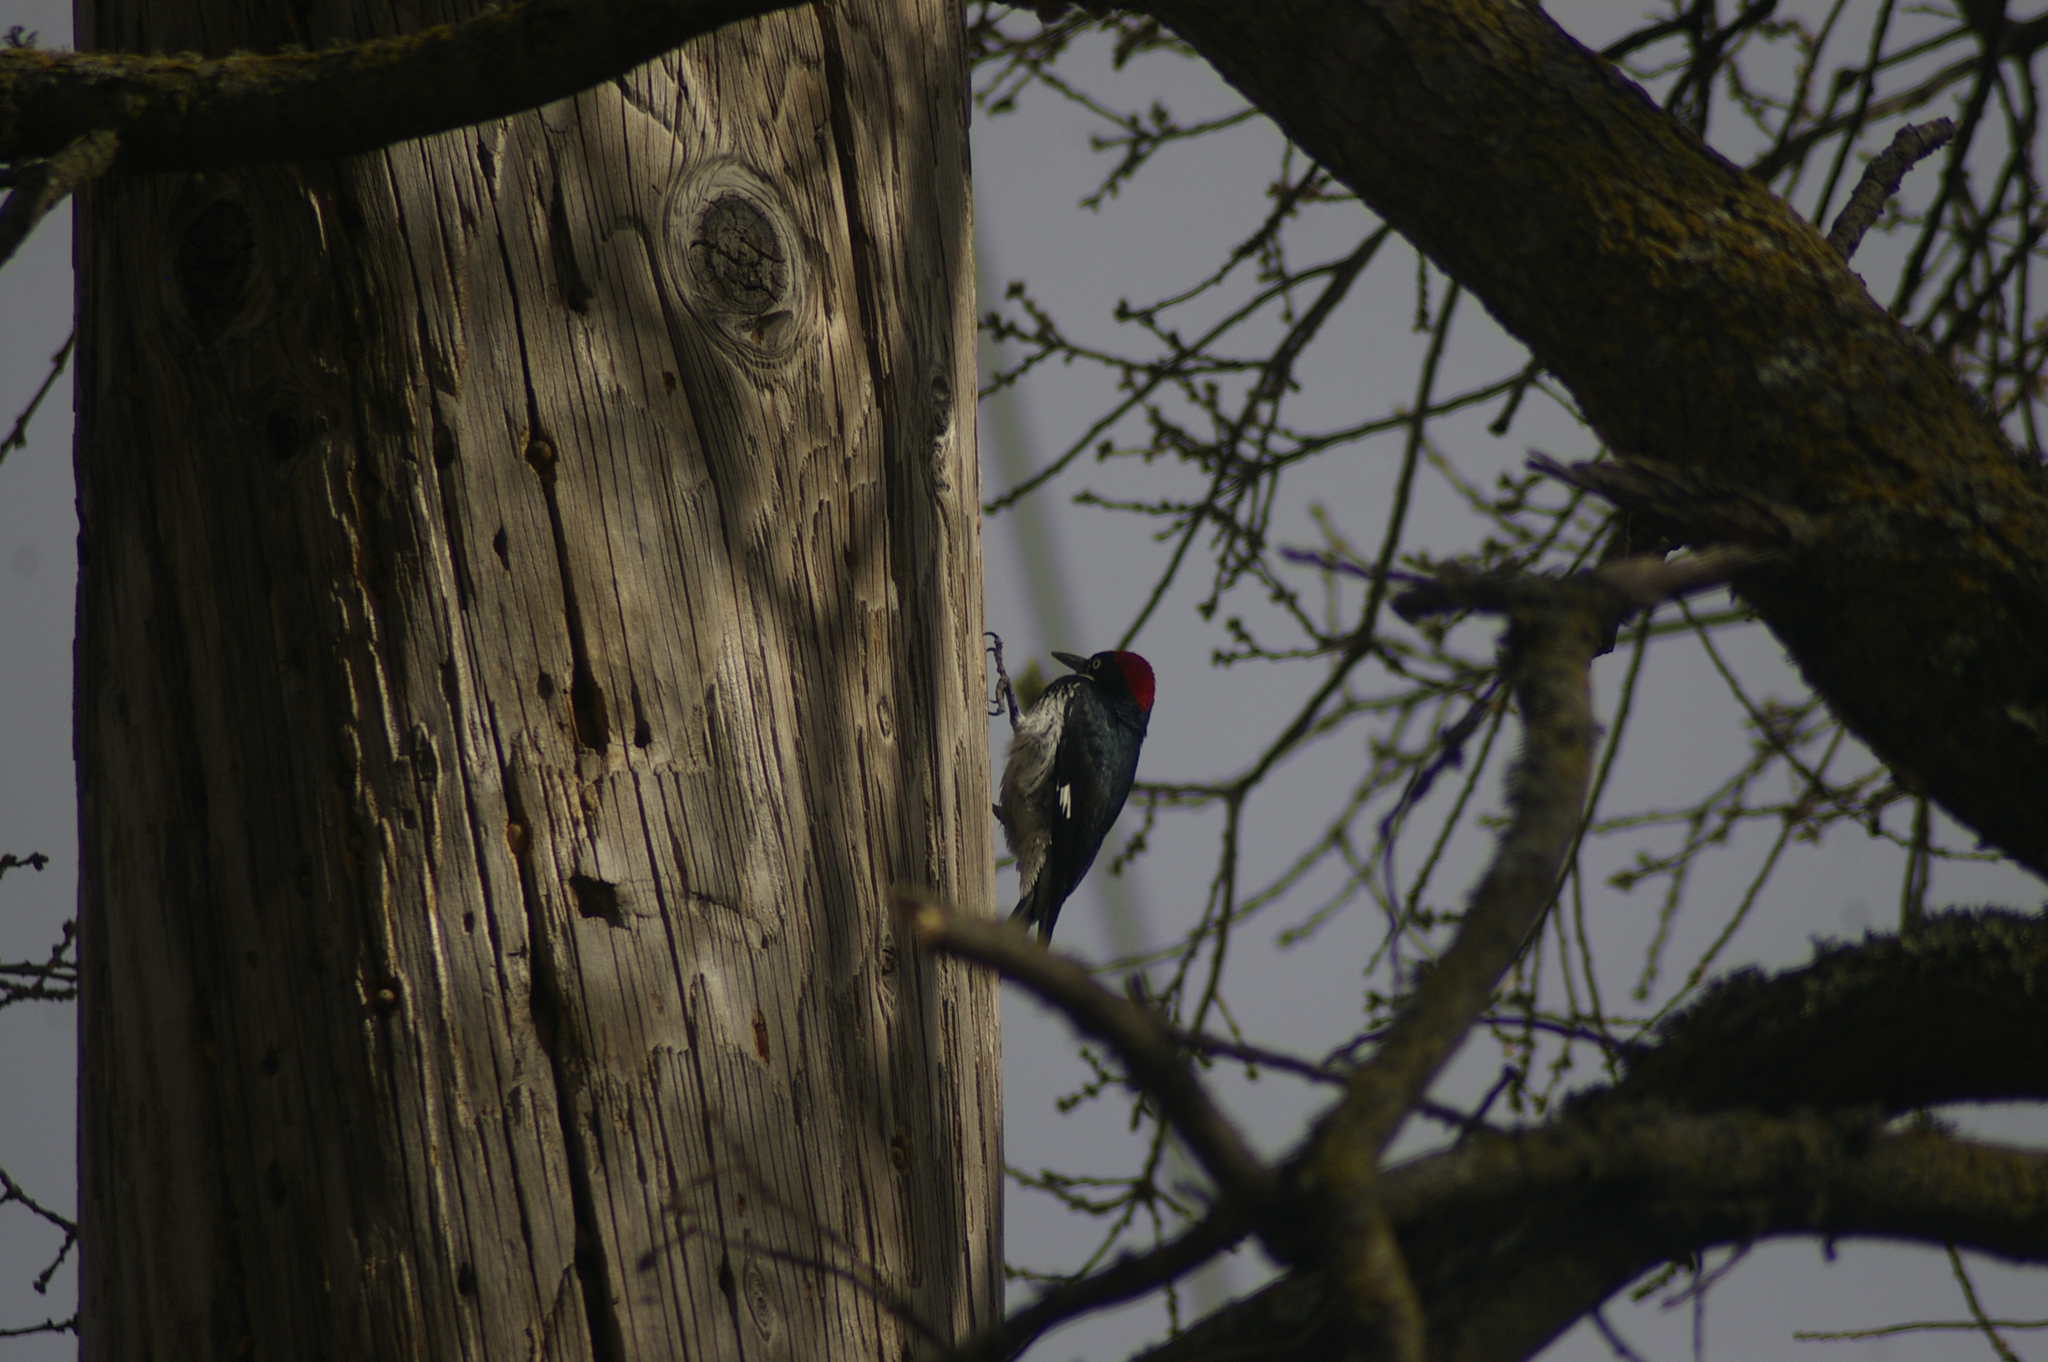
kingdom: Animalia
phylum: Chordata
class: Aves
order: Piciformes
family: Picidae
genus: Melanerpes
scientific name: Melanerpes formicivorus
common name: Acorn woodpecker
